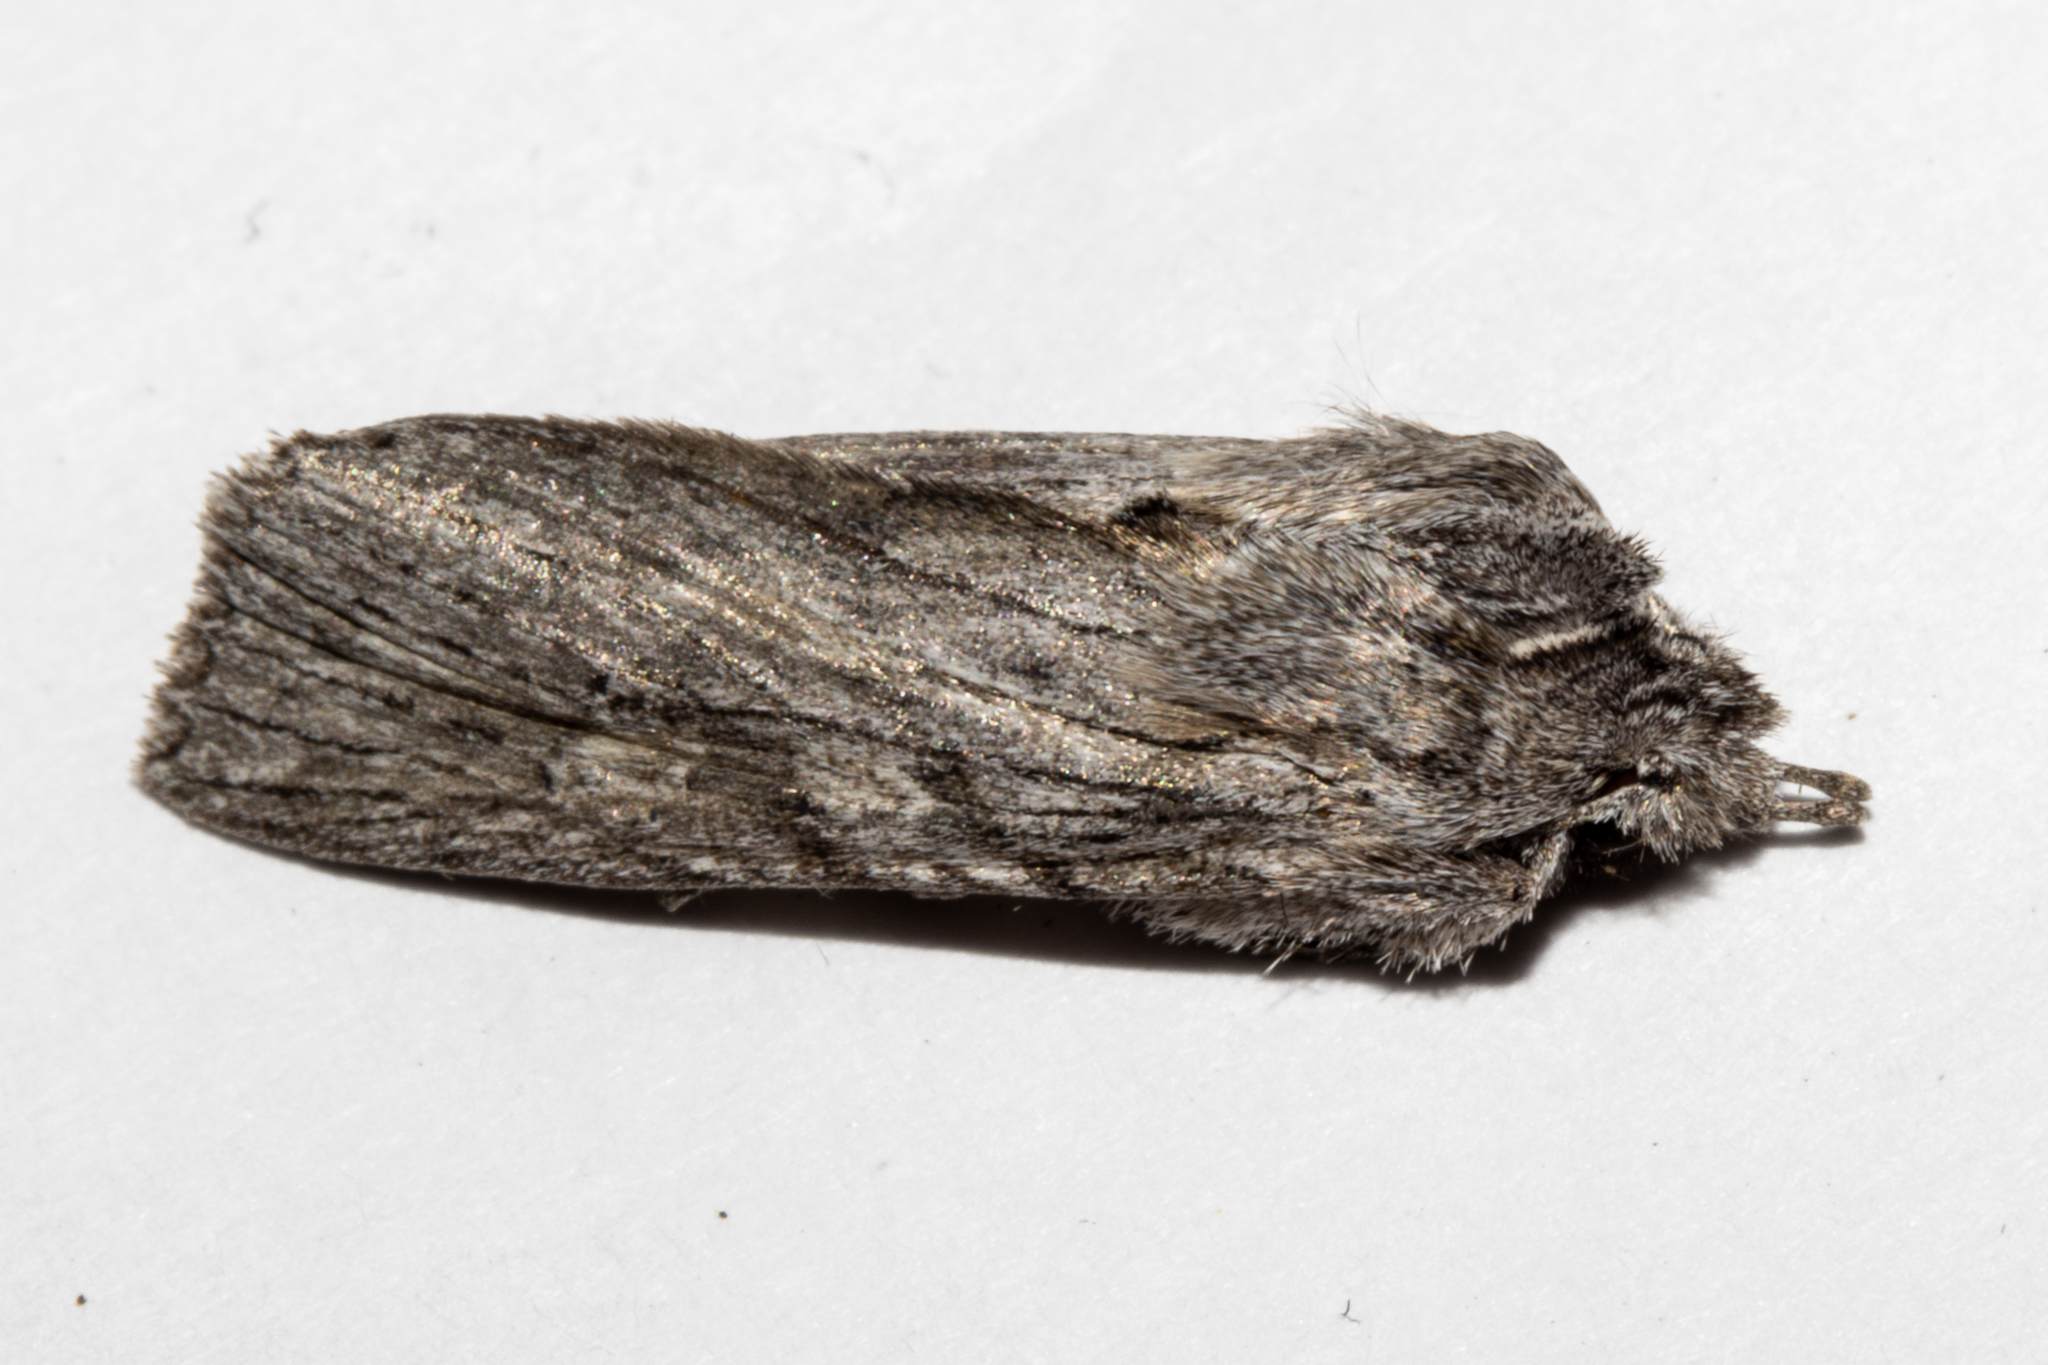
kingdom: Animalia
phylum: Arthropoda
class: Insecta
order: Lepidoptera
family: Noctuidae
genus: Physetica
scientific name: Physetica phricias
